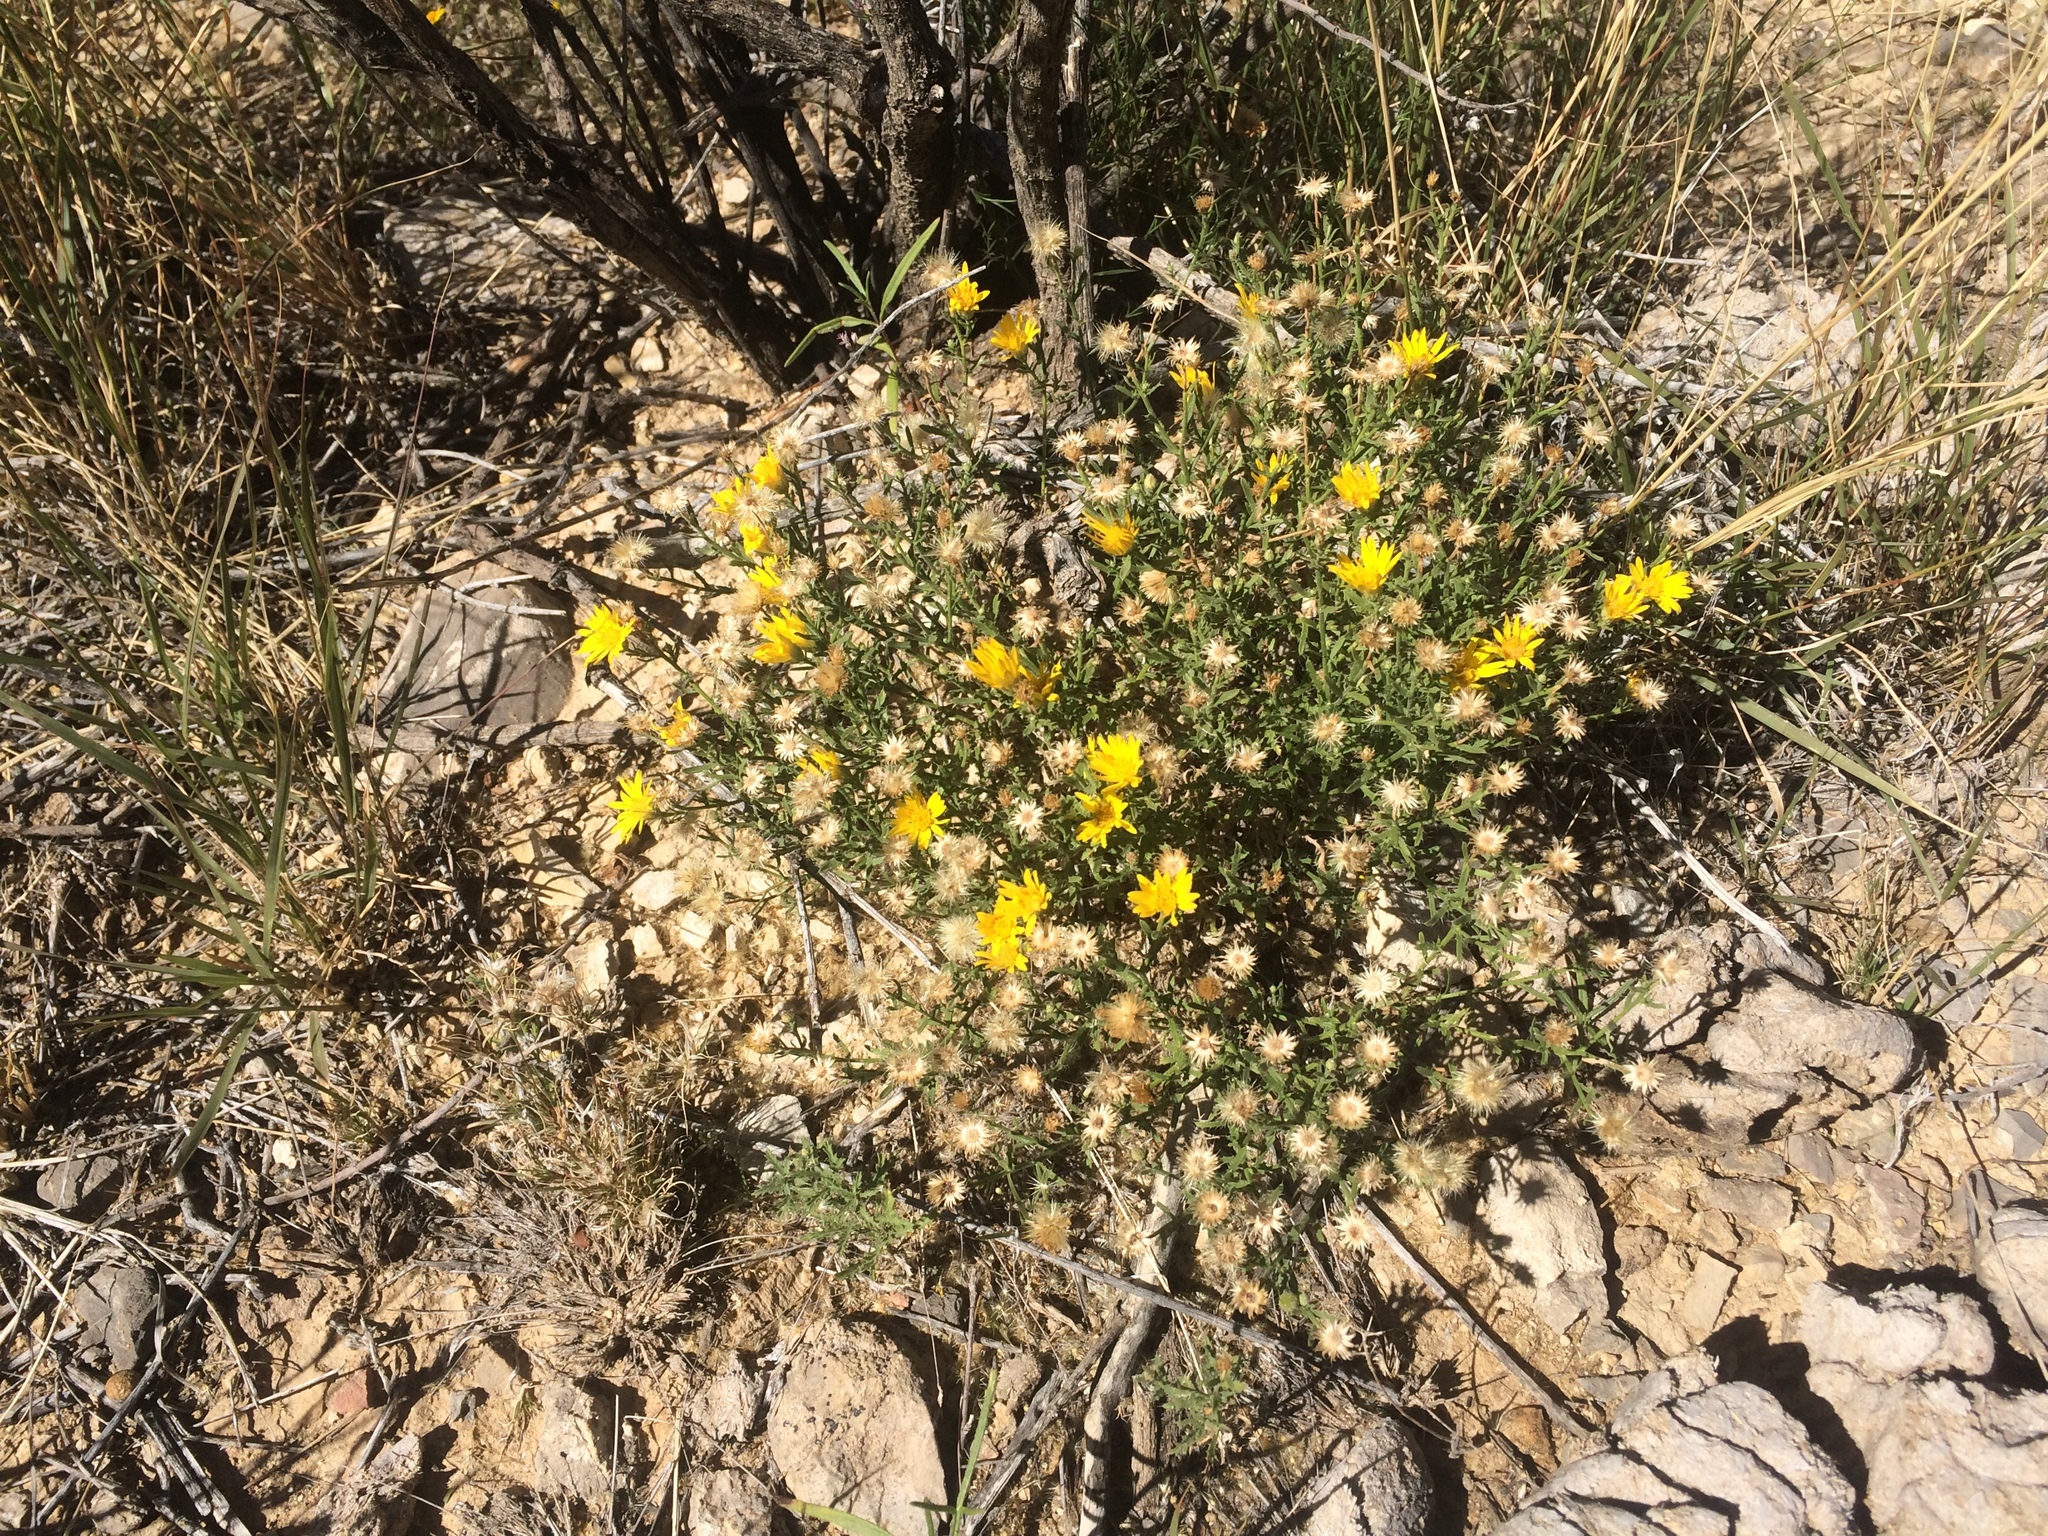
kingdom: Plantae
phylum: Tracheophyta
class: Magnoliopsida
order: Asterales
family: Asteraceae
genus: Xanthisma
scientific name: Xanthisma spinulosum
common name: Spiny goldenweed
